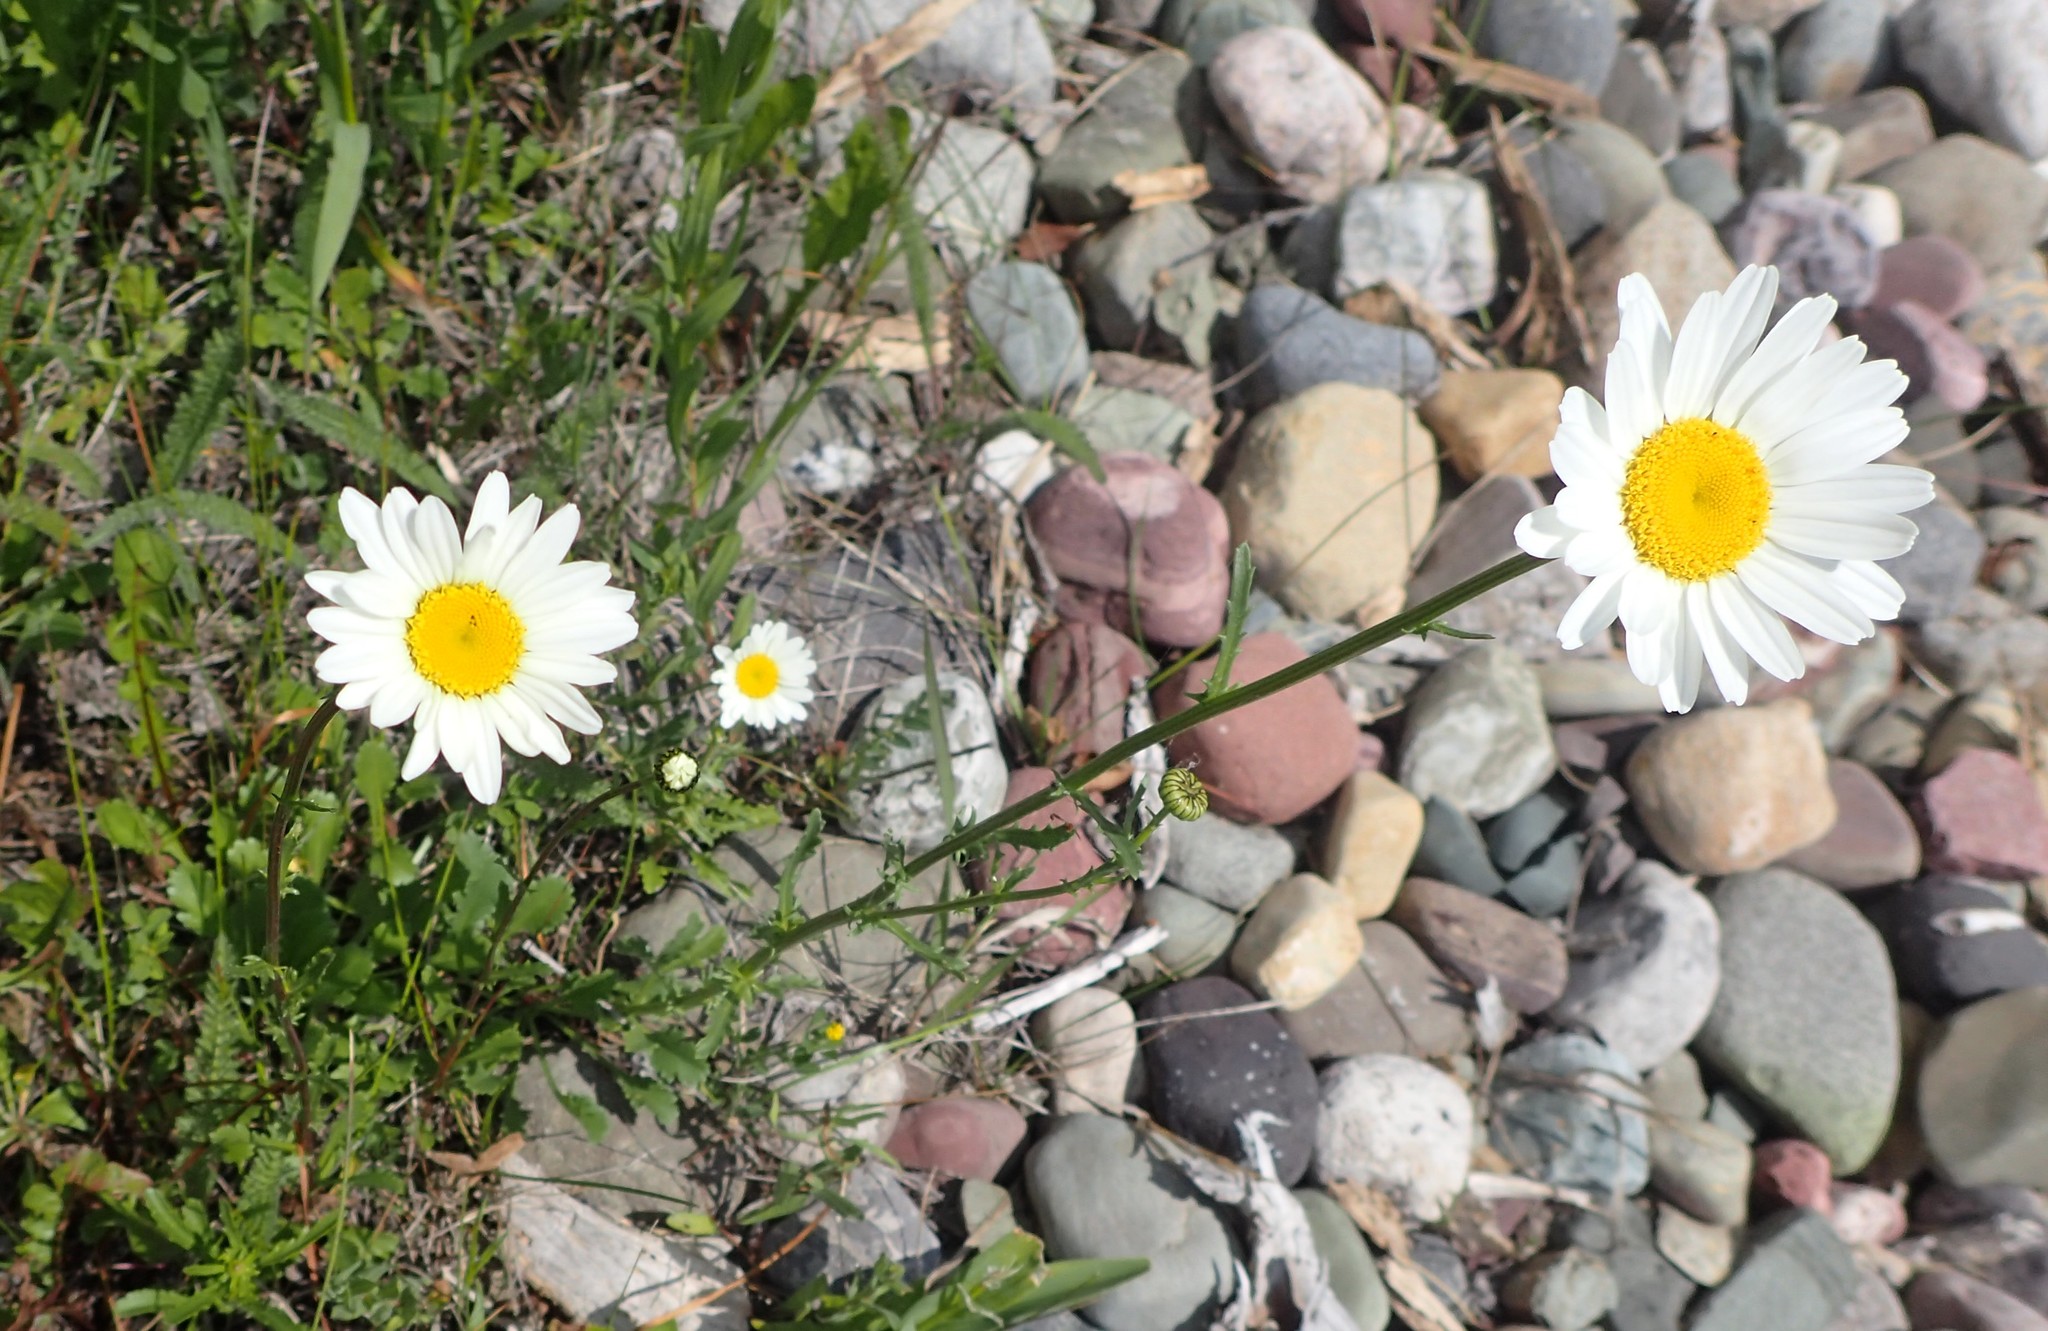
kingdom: Plantae
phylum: Tracheophyta
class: Magnoliopsida
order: Asterales
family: Asteraceae
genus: Leucanthemum
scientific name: Leucanthemum vulgare
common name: Oxeye daisy
